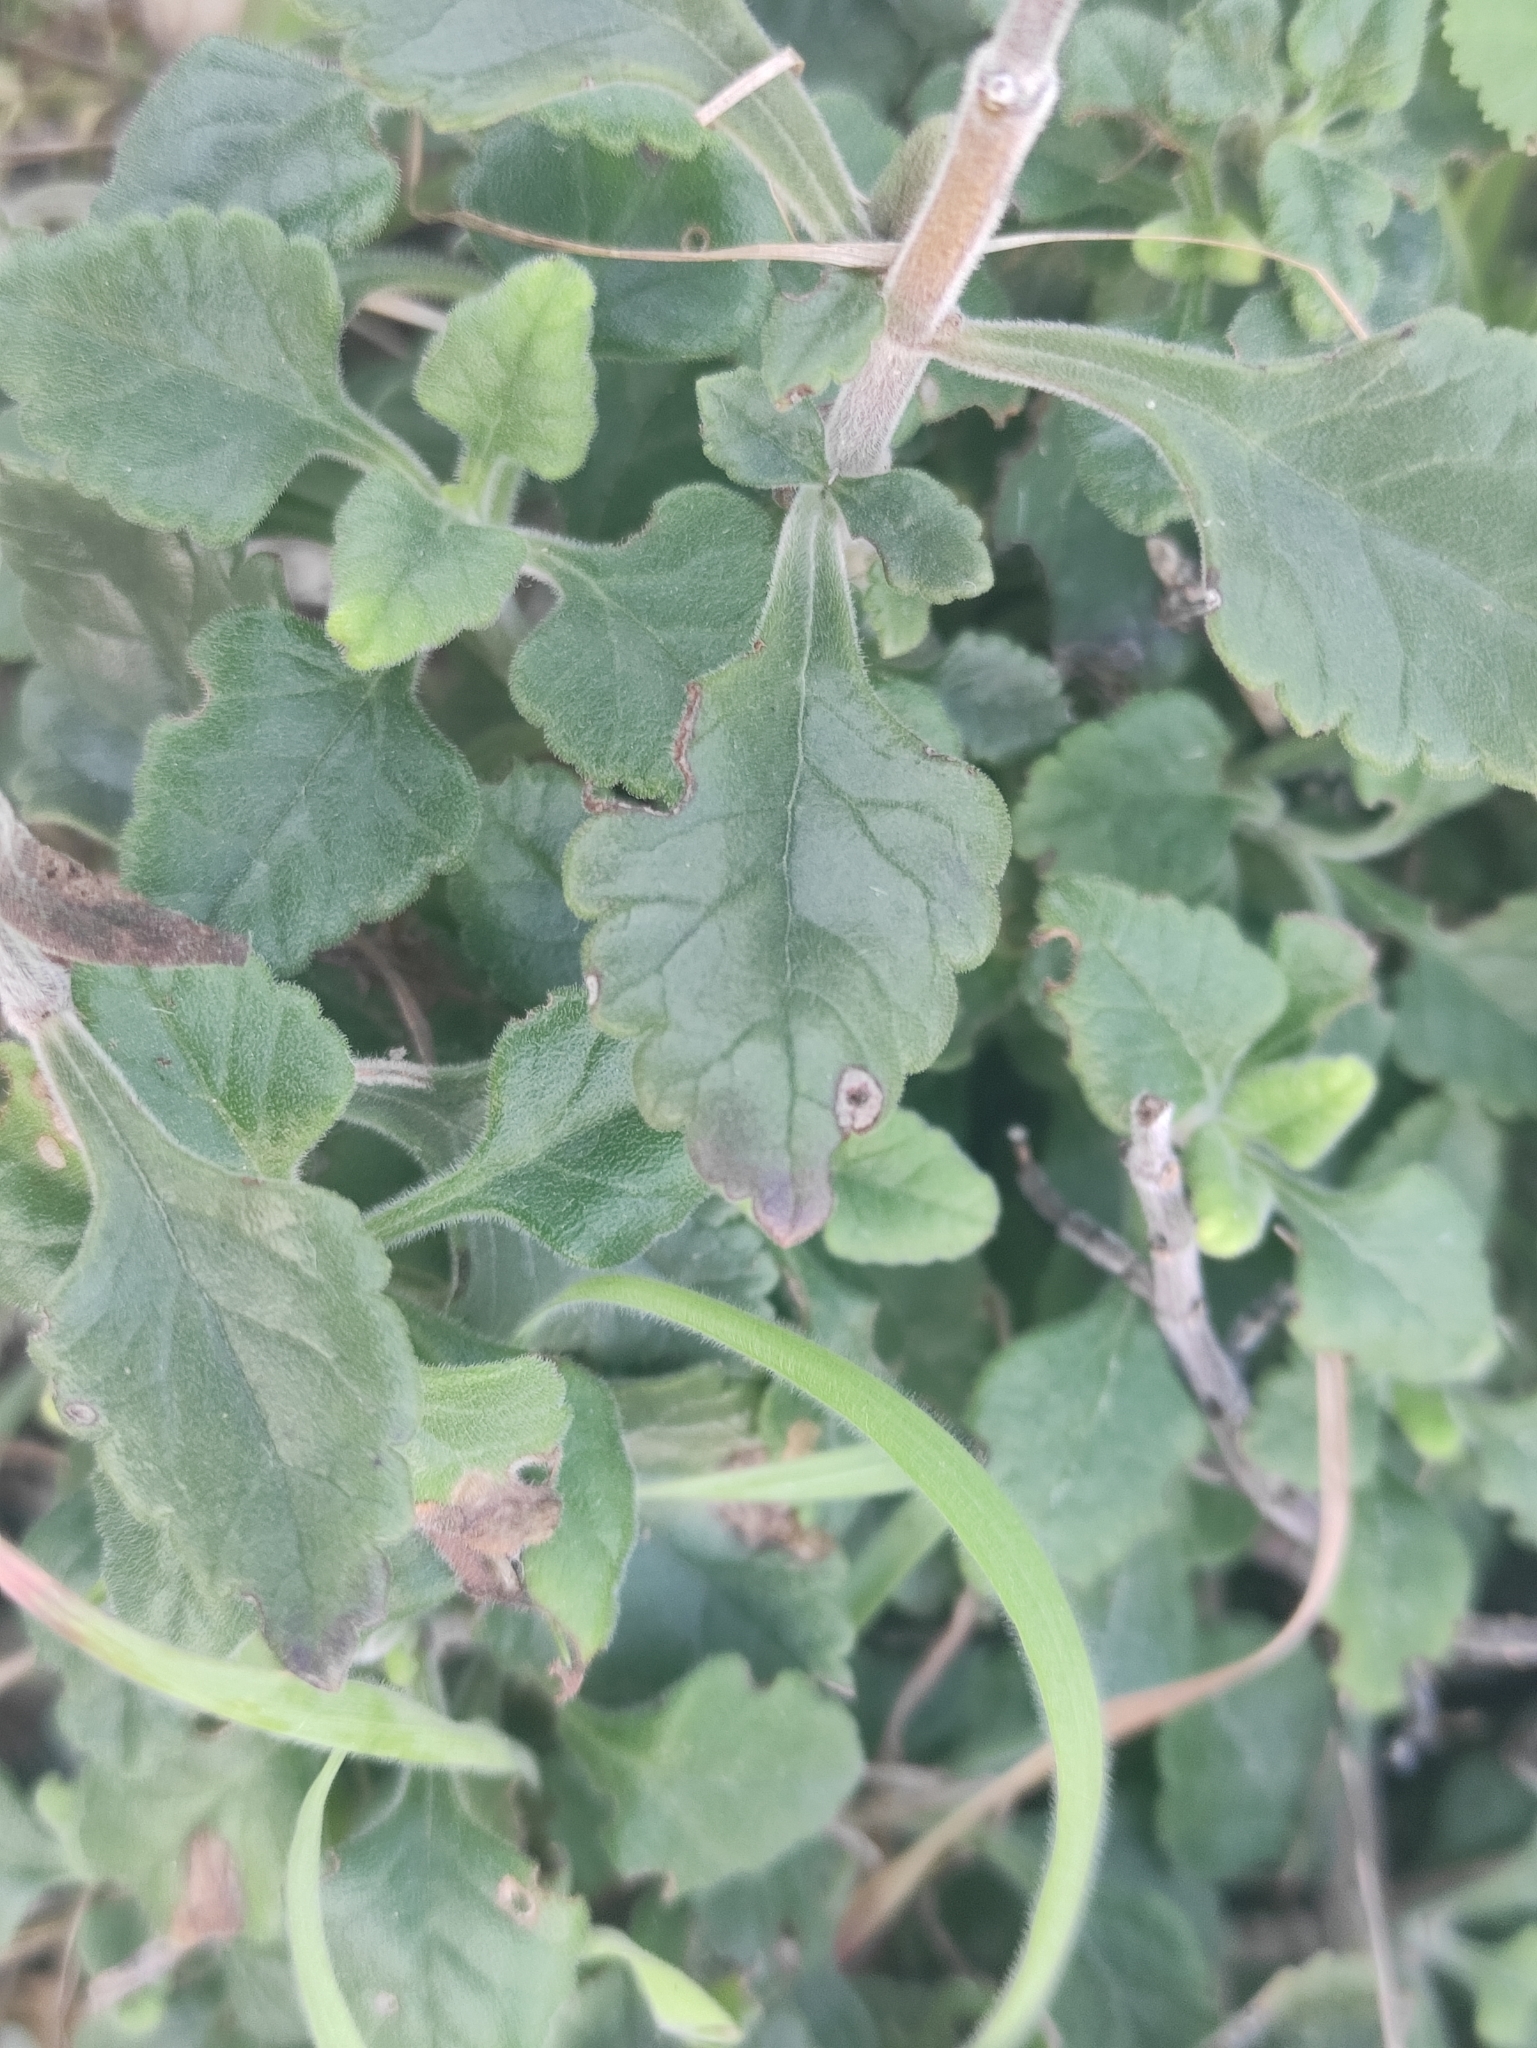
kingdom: Plantae
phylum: Tracheophyta
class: Magnoliopsida
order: Lamiales
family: Lamiaceae
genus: Teucrium
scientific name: Teucrium flavum
